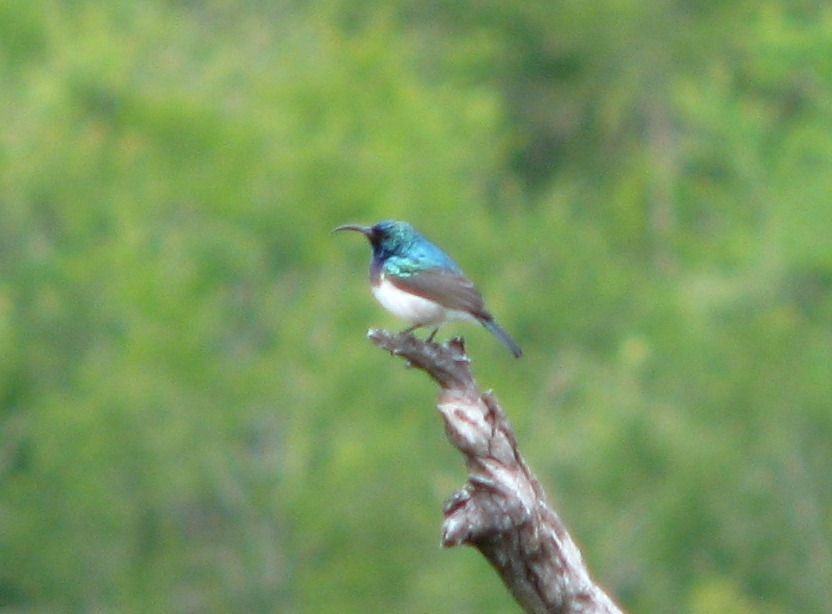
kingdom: Animalia
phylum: Chordata
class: Aves
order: Passeriformes
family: Nectariniidae
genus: Cinnyris
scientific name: Cinnyris talatala
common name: White-bellied sunbird
